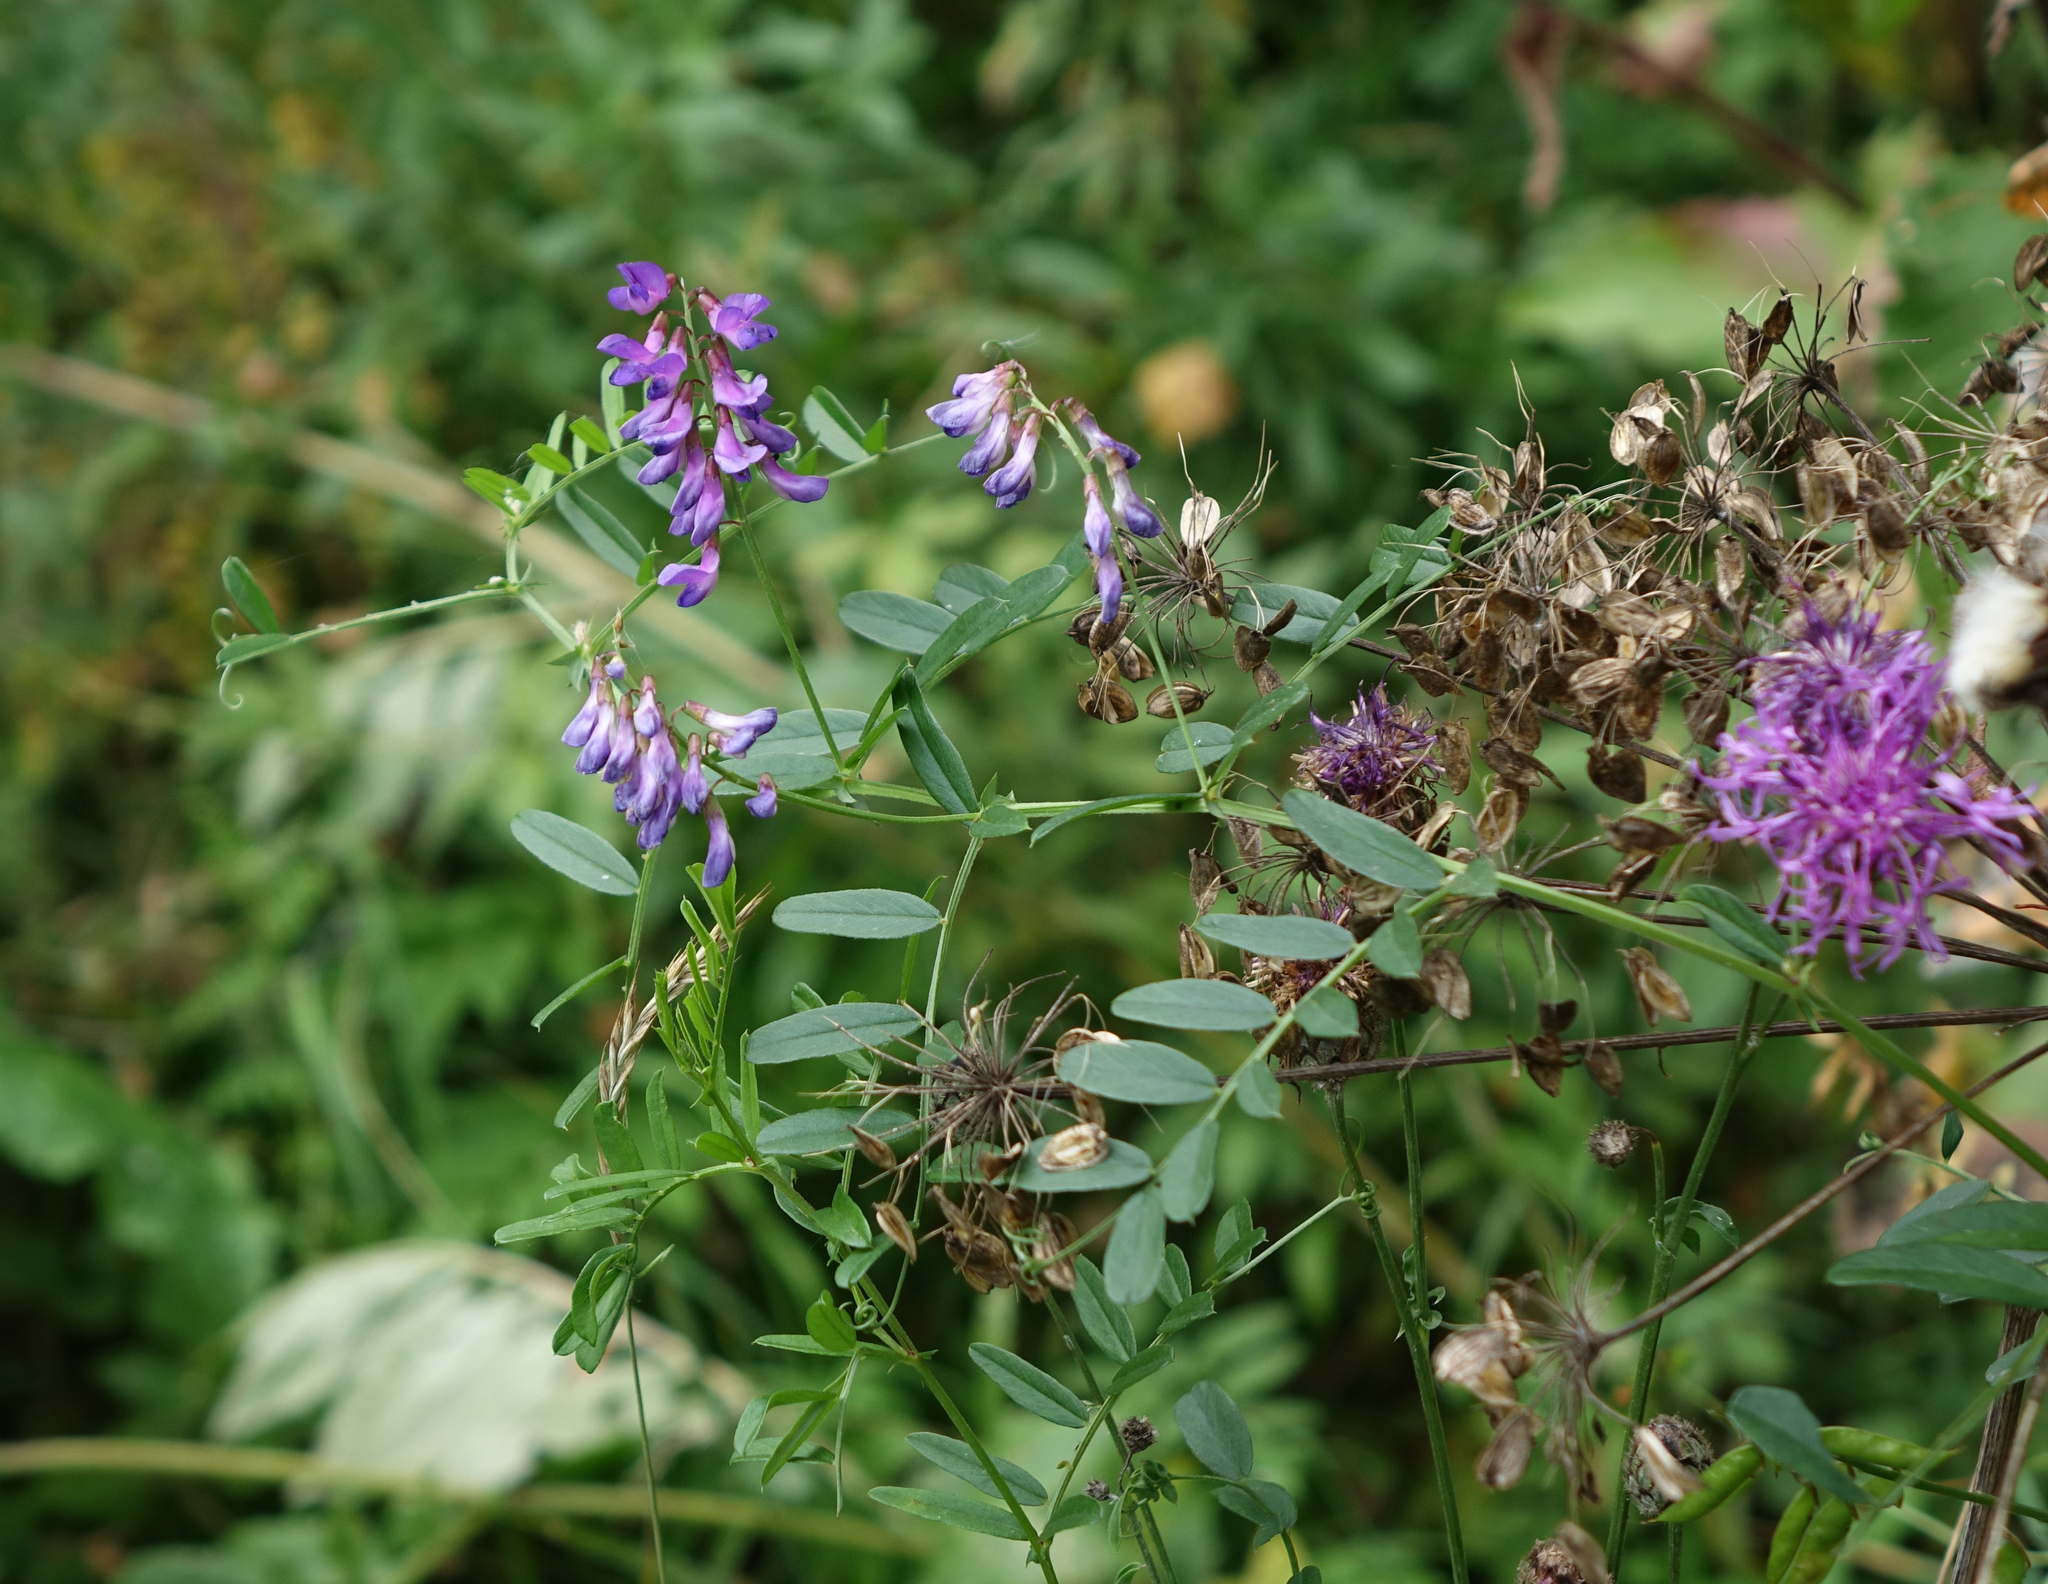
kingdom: Plantae
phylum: Tracheophyta
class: Magnoliopsida
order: Fabales
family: Fabaceae
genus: Vicia
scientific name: Vicia amoena
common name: Cheder ebs
